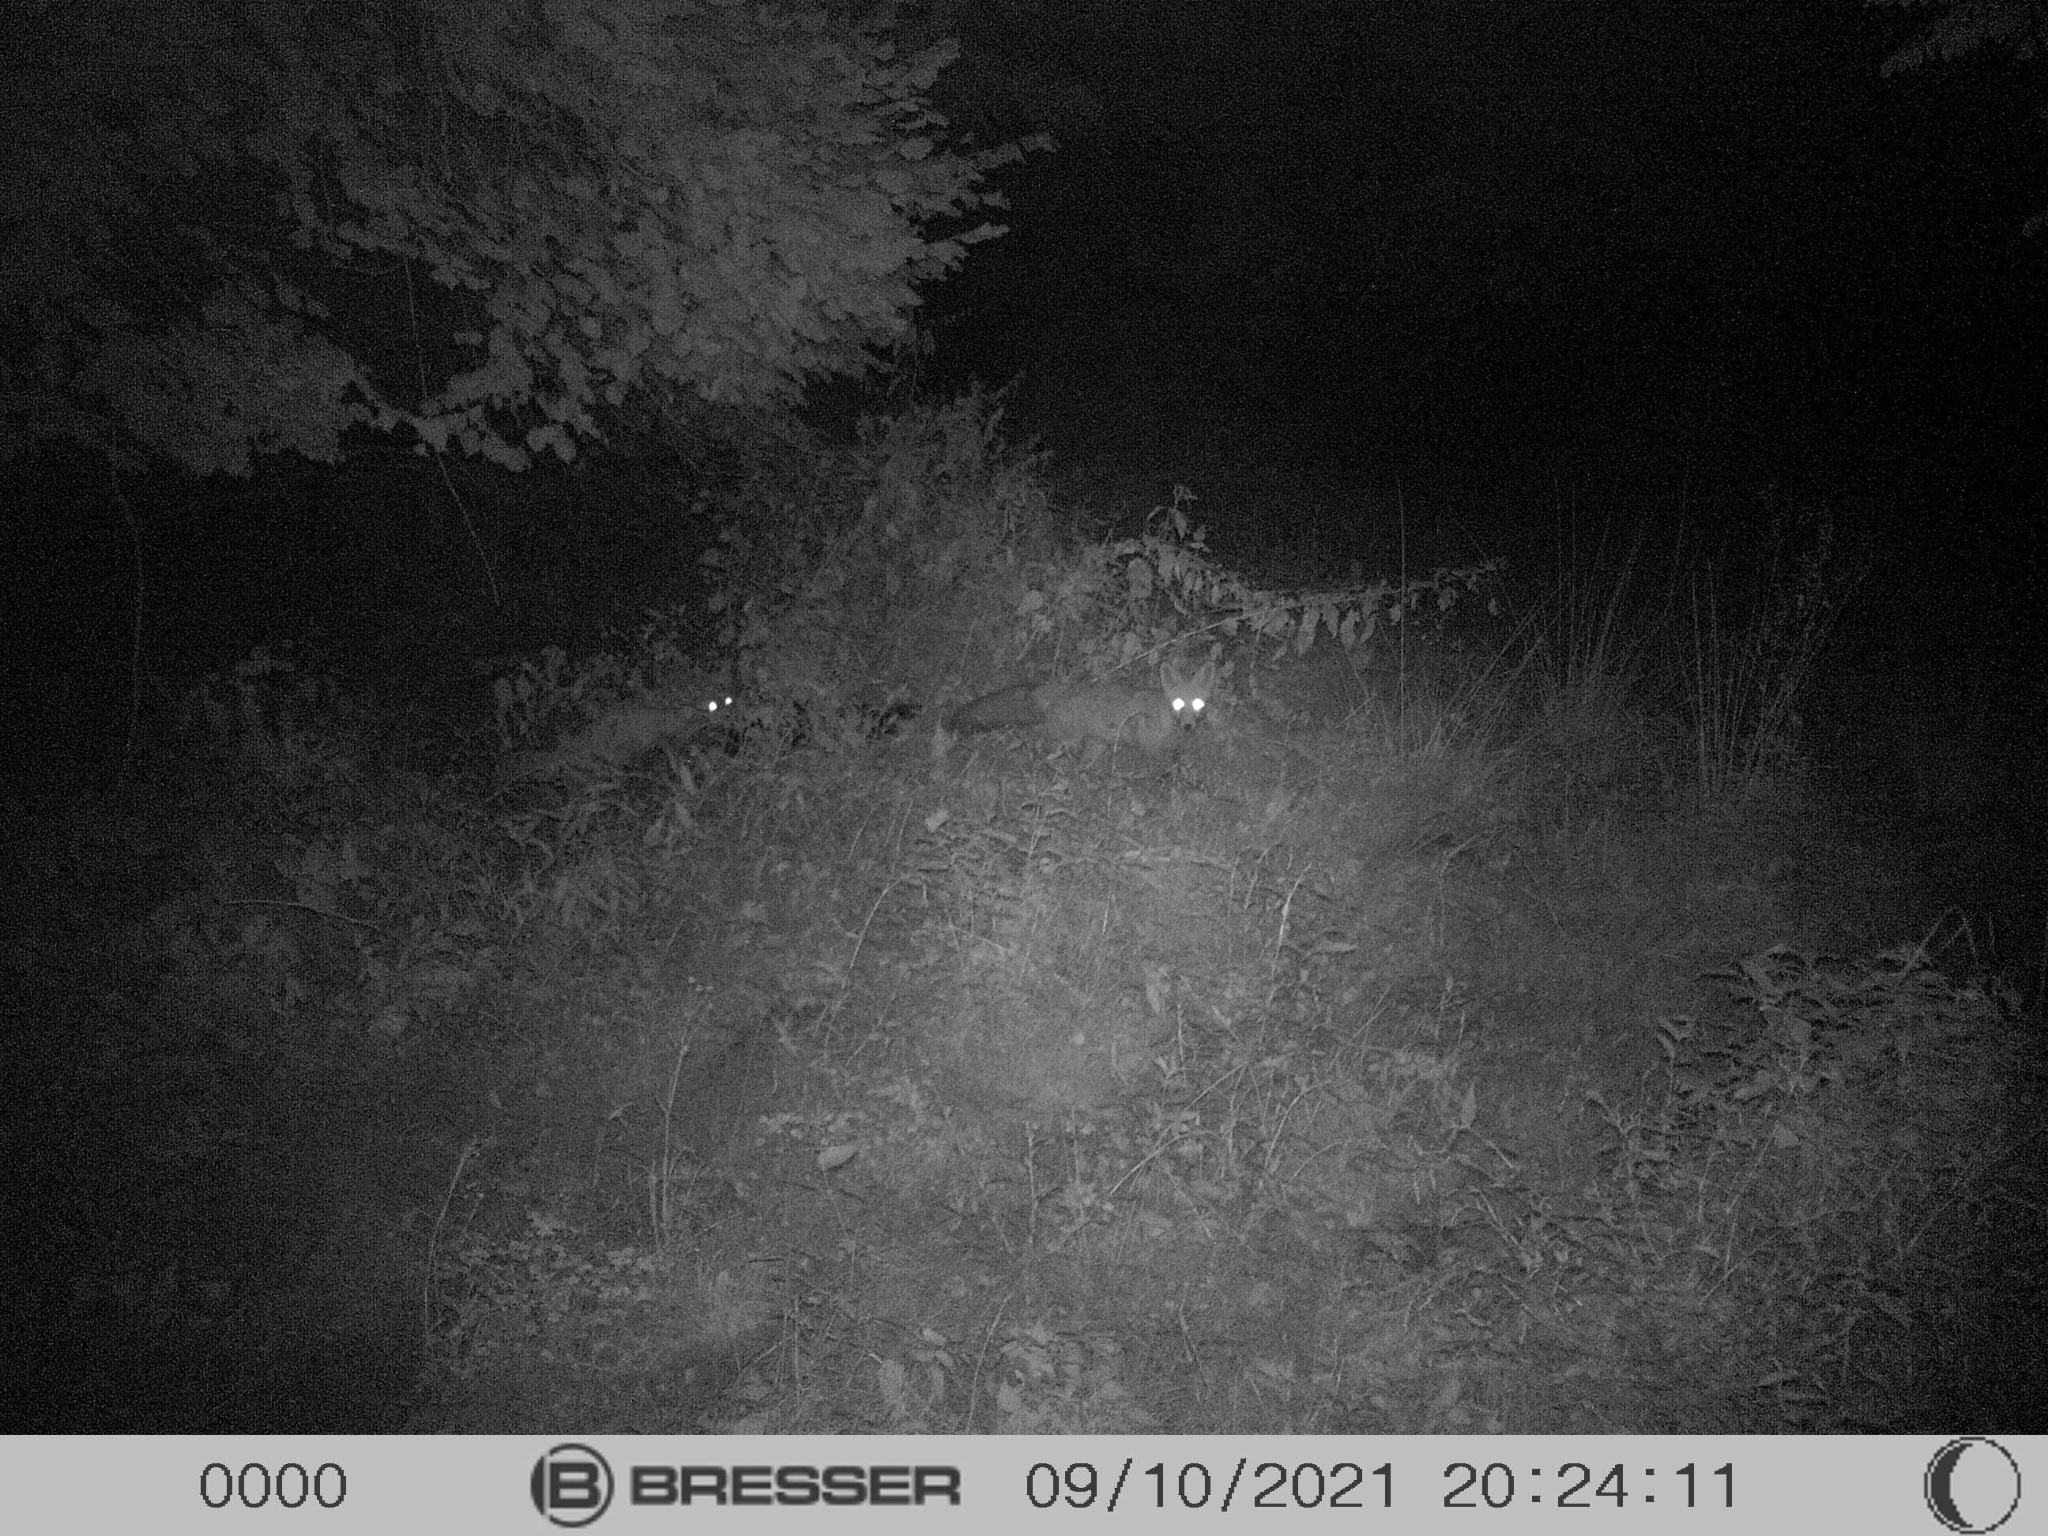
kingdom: Animalia
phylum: Chordata
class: Mammalia
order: Carnivora
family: Canidae
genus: Vulpes
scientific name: Vulpes vulpes
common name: Red fox
